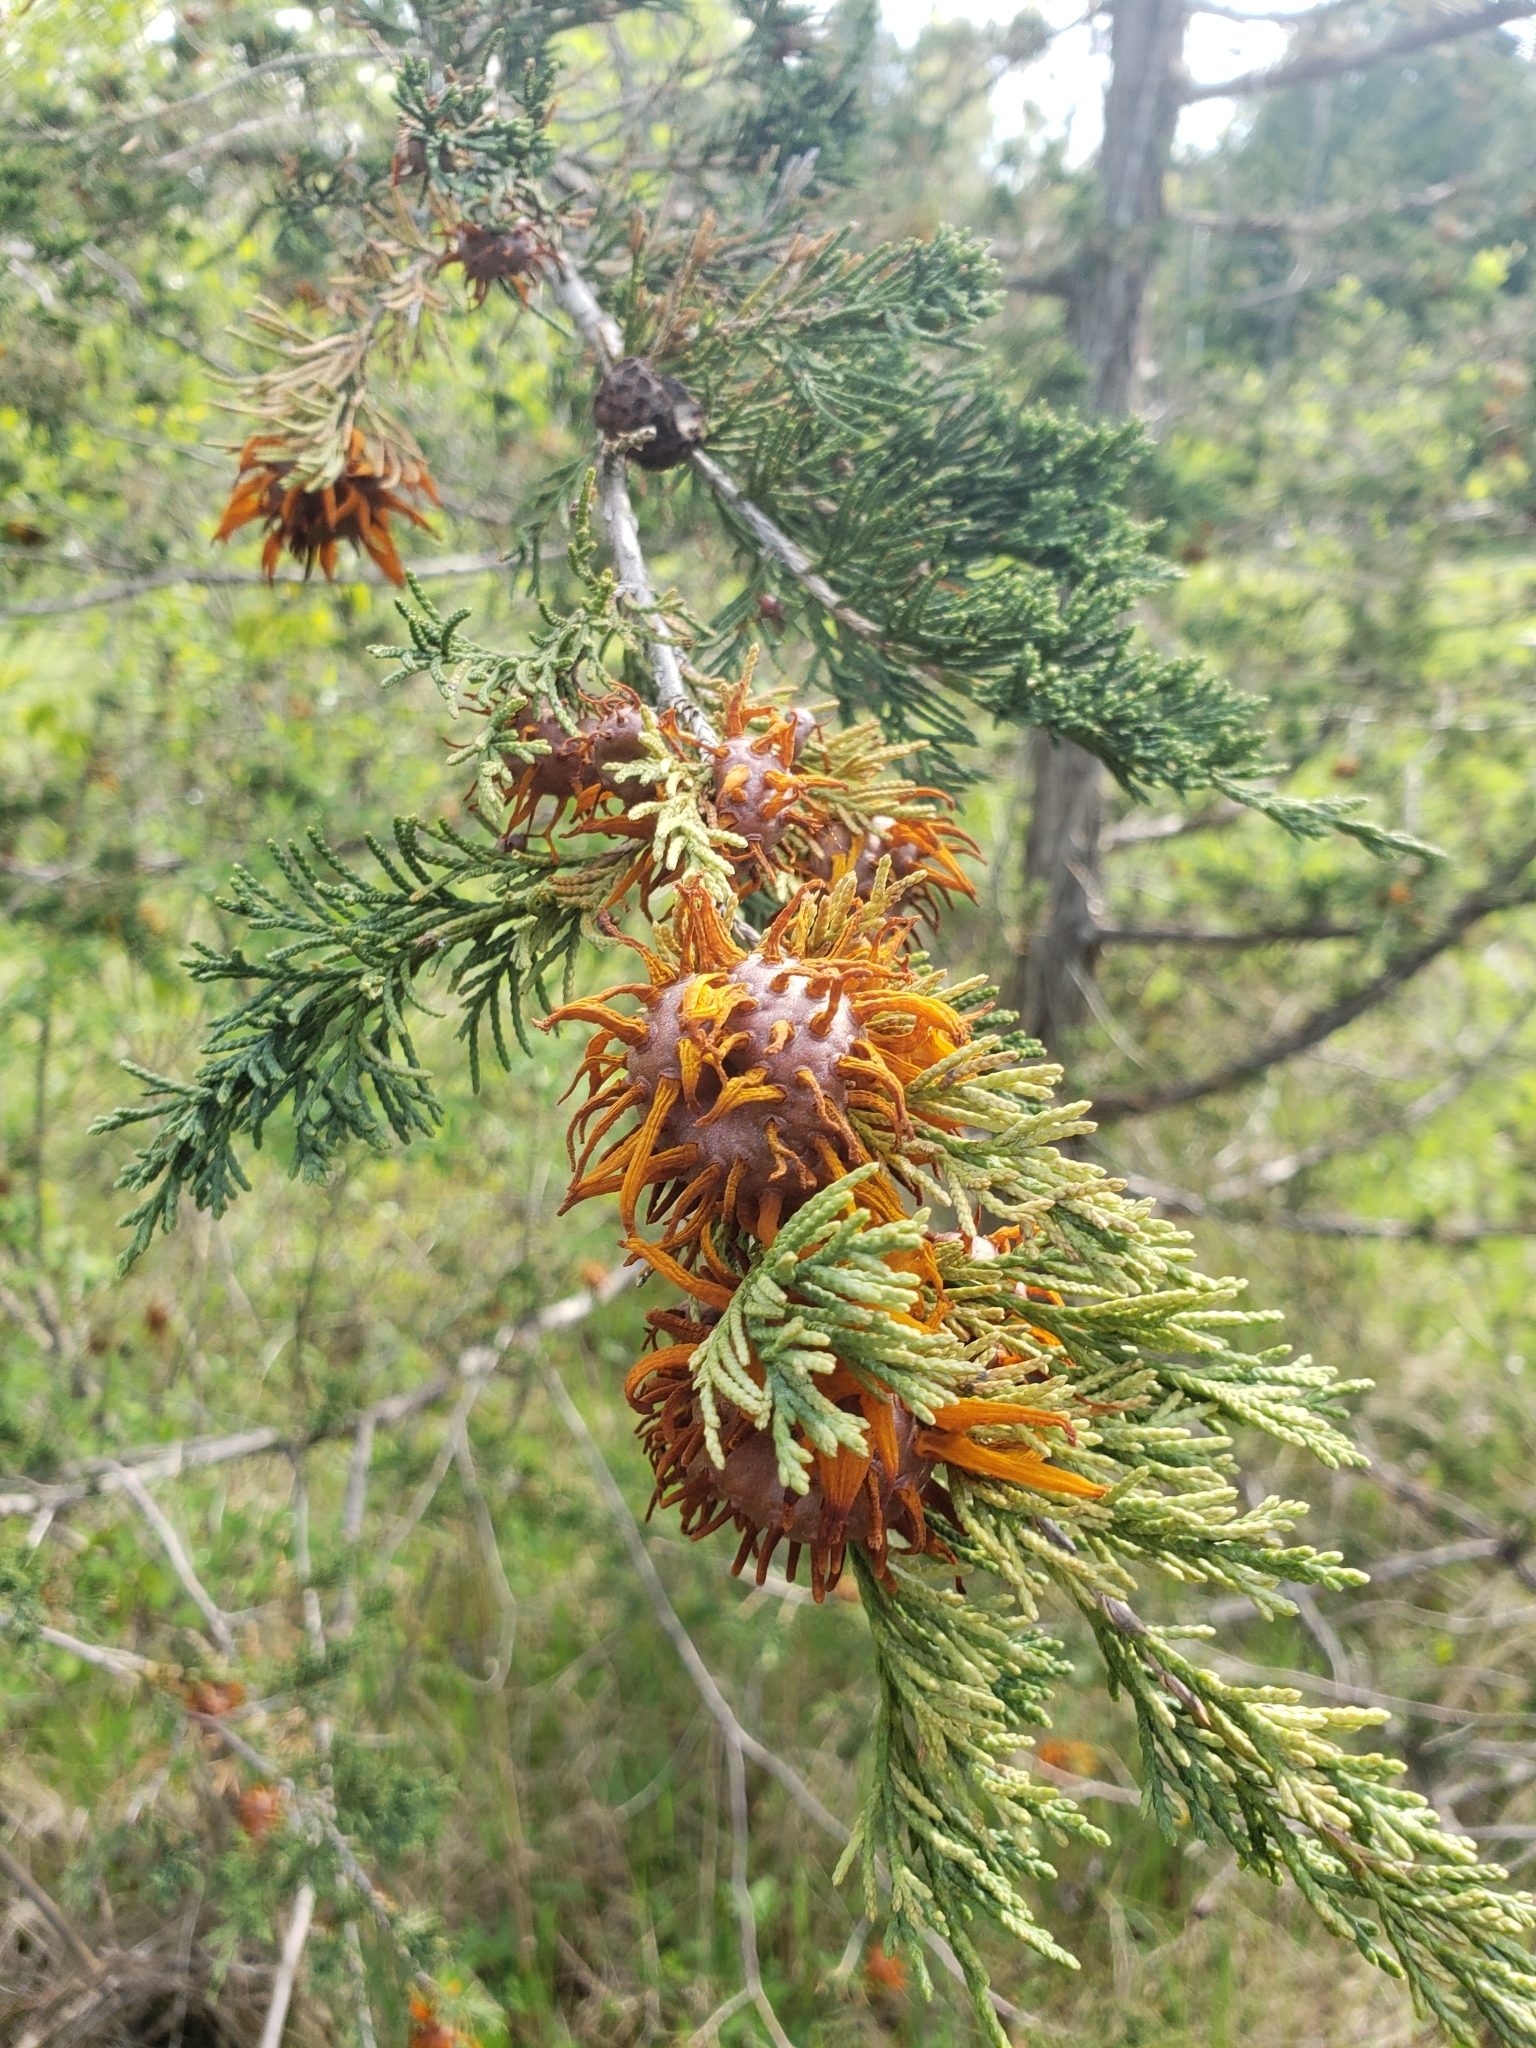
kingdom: Fungi
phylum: Basidiomycota
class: Pucciniomycetes
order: Pucciniales
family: Gymnosporangiaceae
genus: Gymnosporangium
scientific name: Gymnosporangium juniperi-virginianae
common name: Juniper-apple rust
